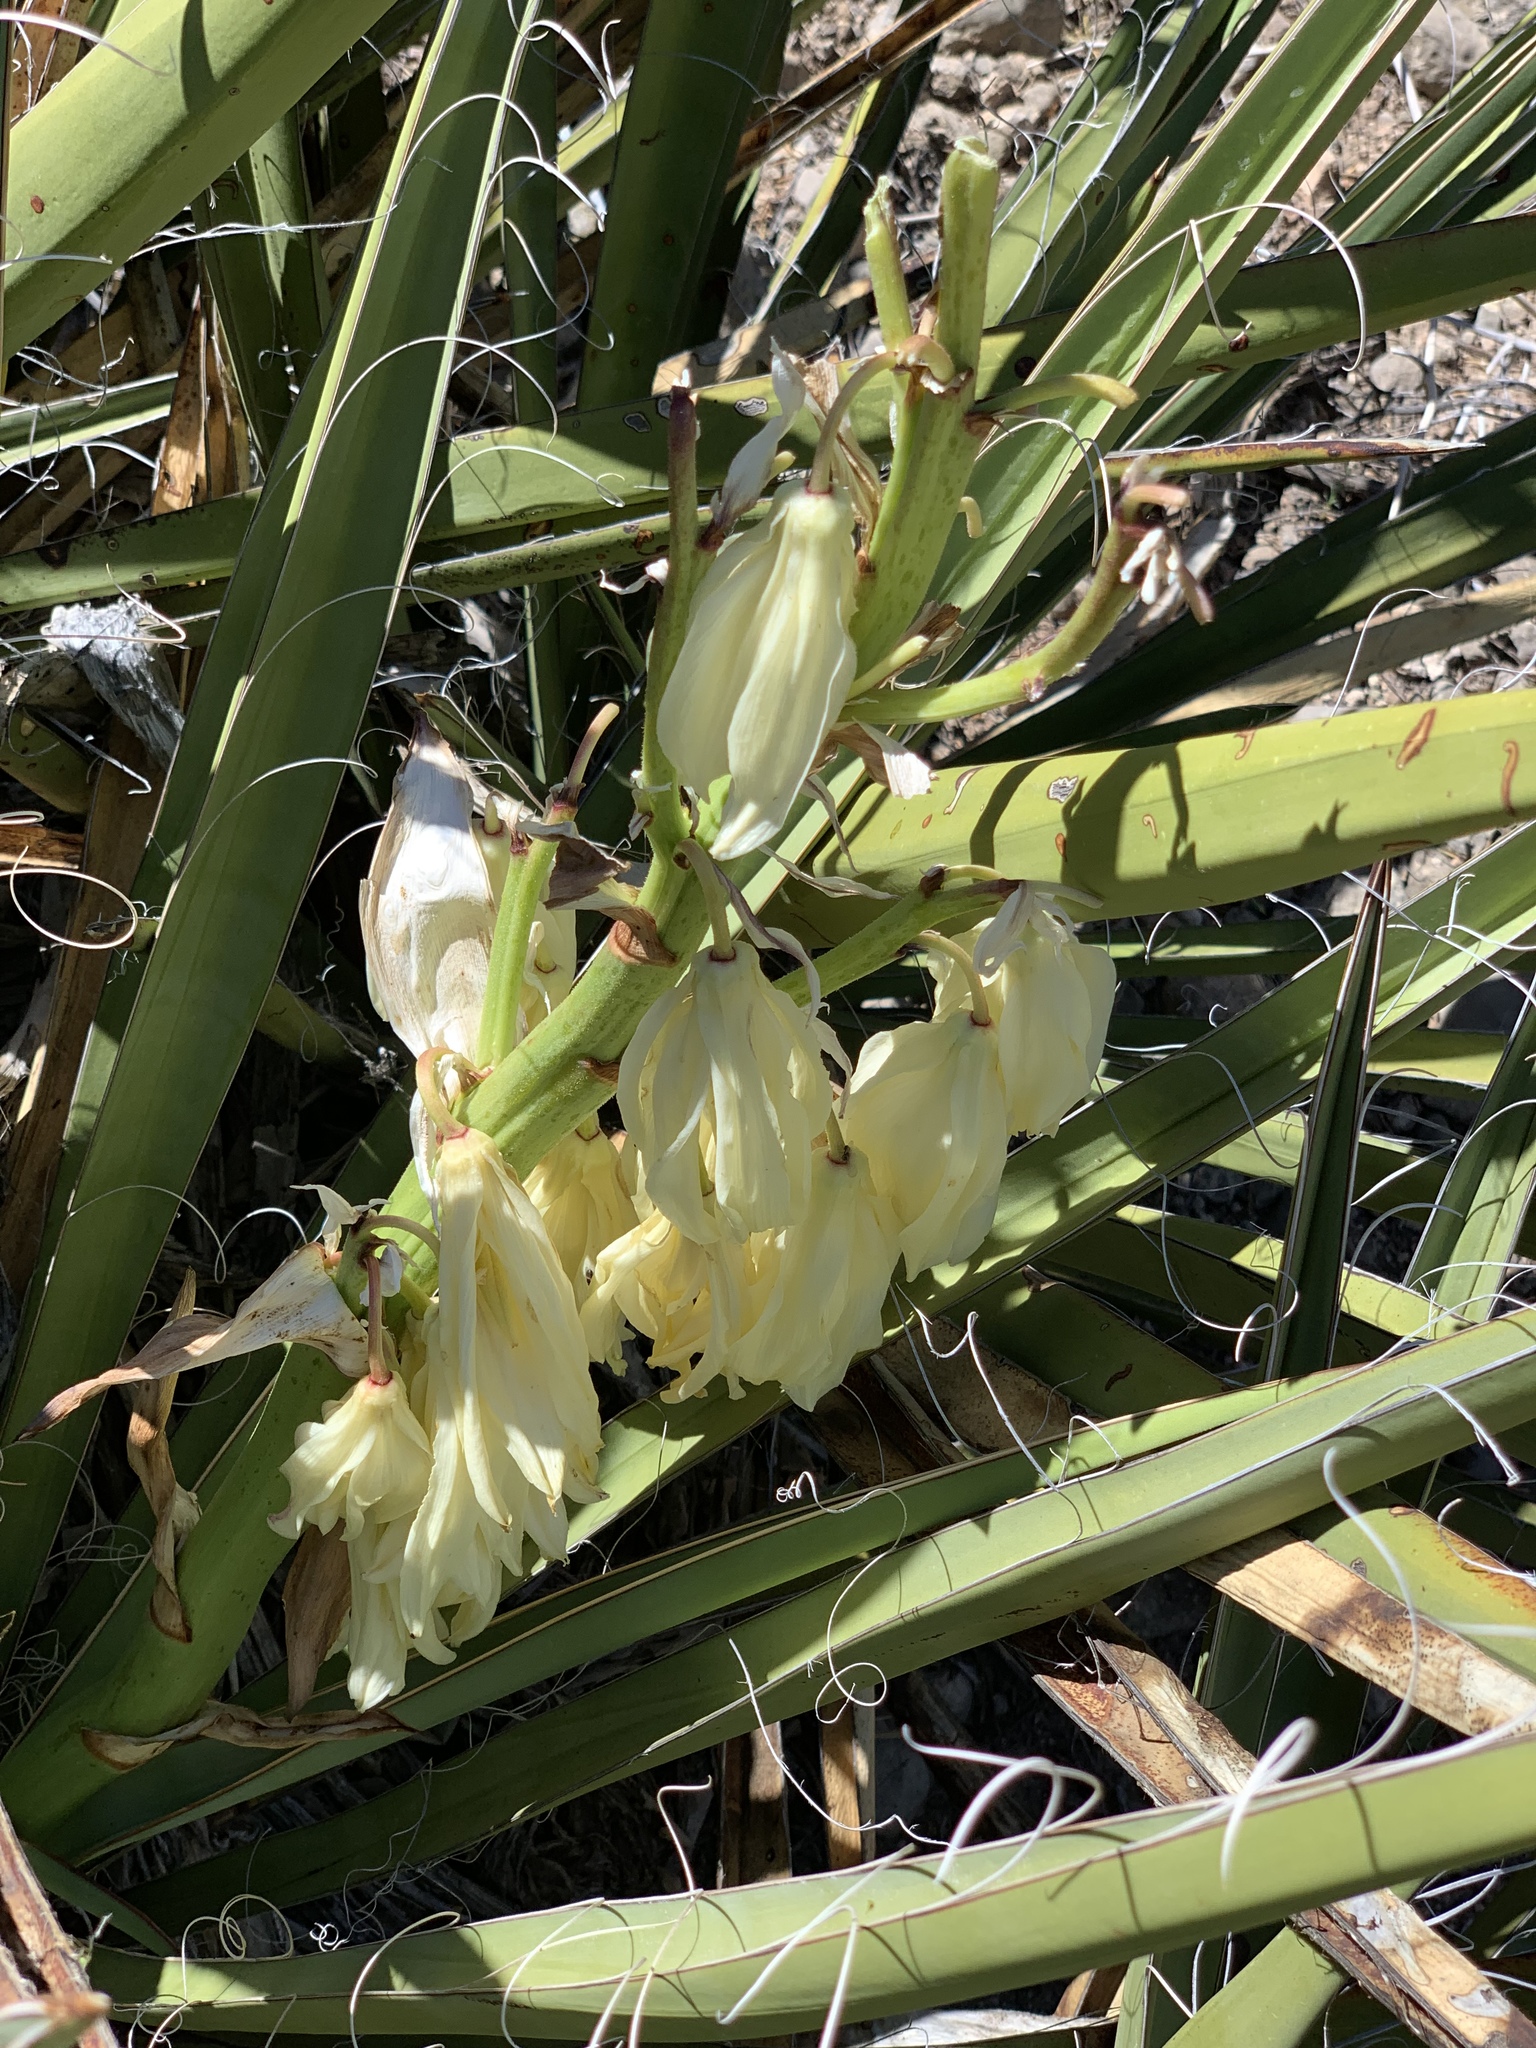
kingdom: Plantae
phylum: Tracheophyta
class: Liliopsida
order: Asparagales
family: Asparagaceae
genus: Yucca
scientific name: Yucca baccata
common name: Banana yucca
